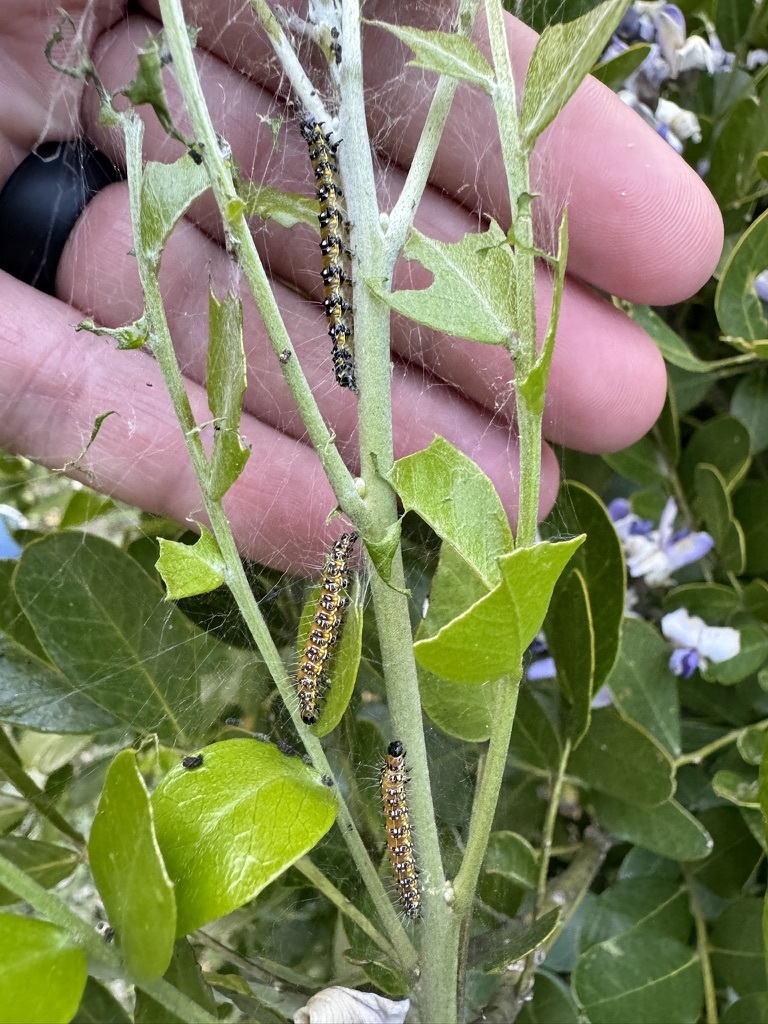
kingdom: Animalia
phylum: Arthropoda
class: Insecta
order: Lepidoptera
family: Crambidae
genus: Uresiphita
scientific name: Uresiphita reversalis
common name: Genista broom moth
